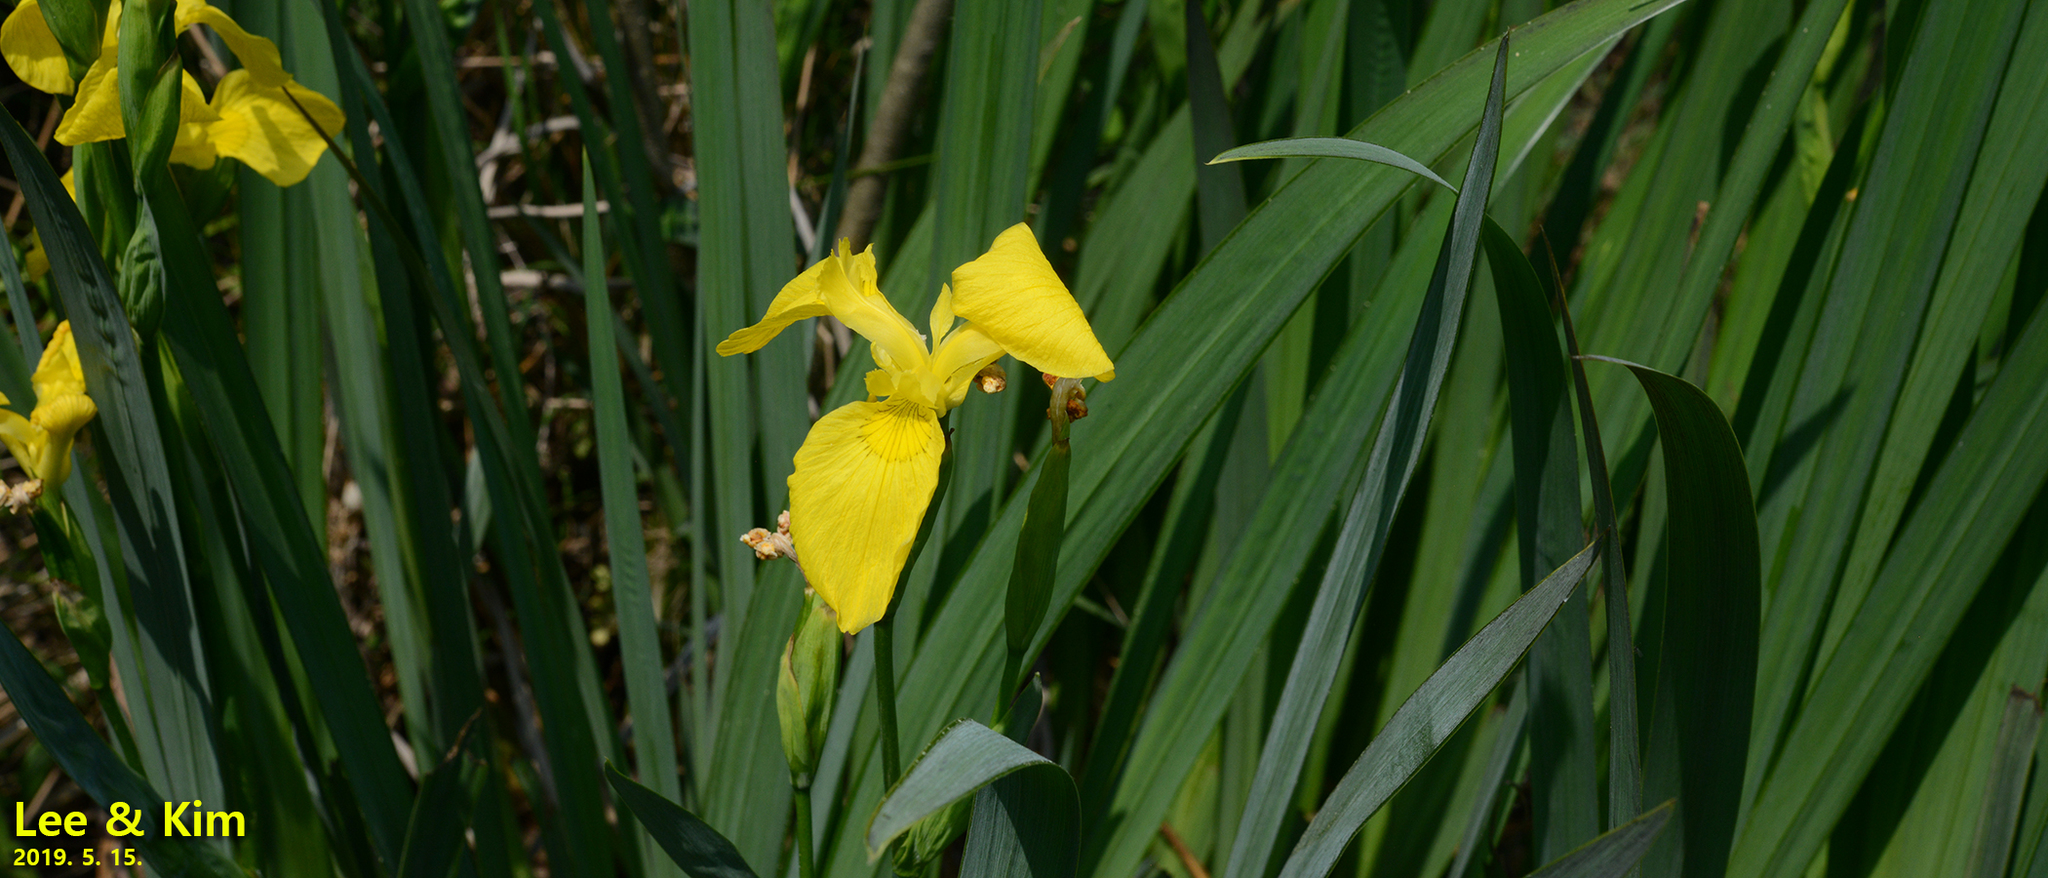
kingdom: Plantae
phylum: Tracheophyta
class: Liliopsida
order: Asparagales
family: Iridaceae
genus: Iris
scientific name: Iris pseudacorus
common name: Yellow flag
